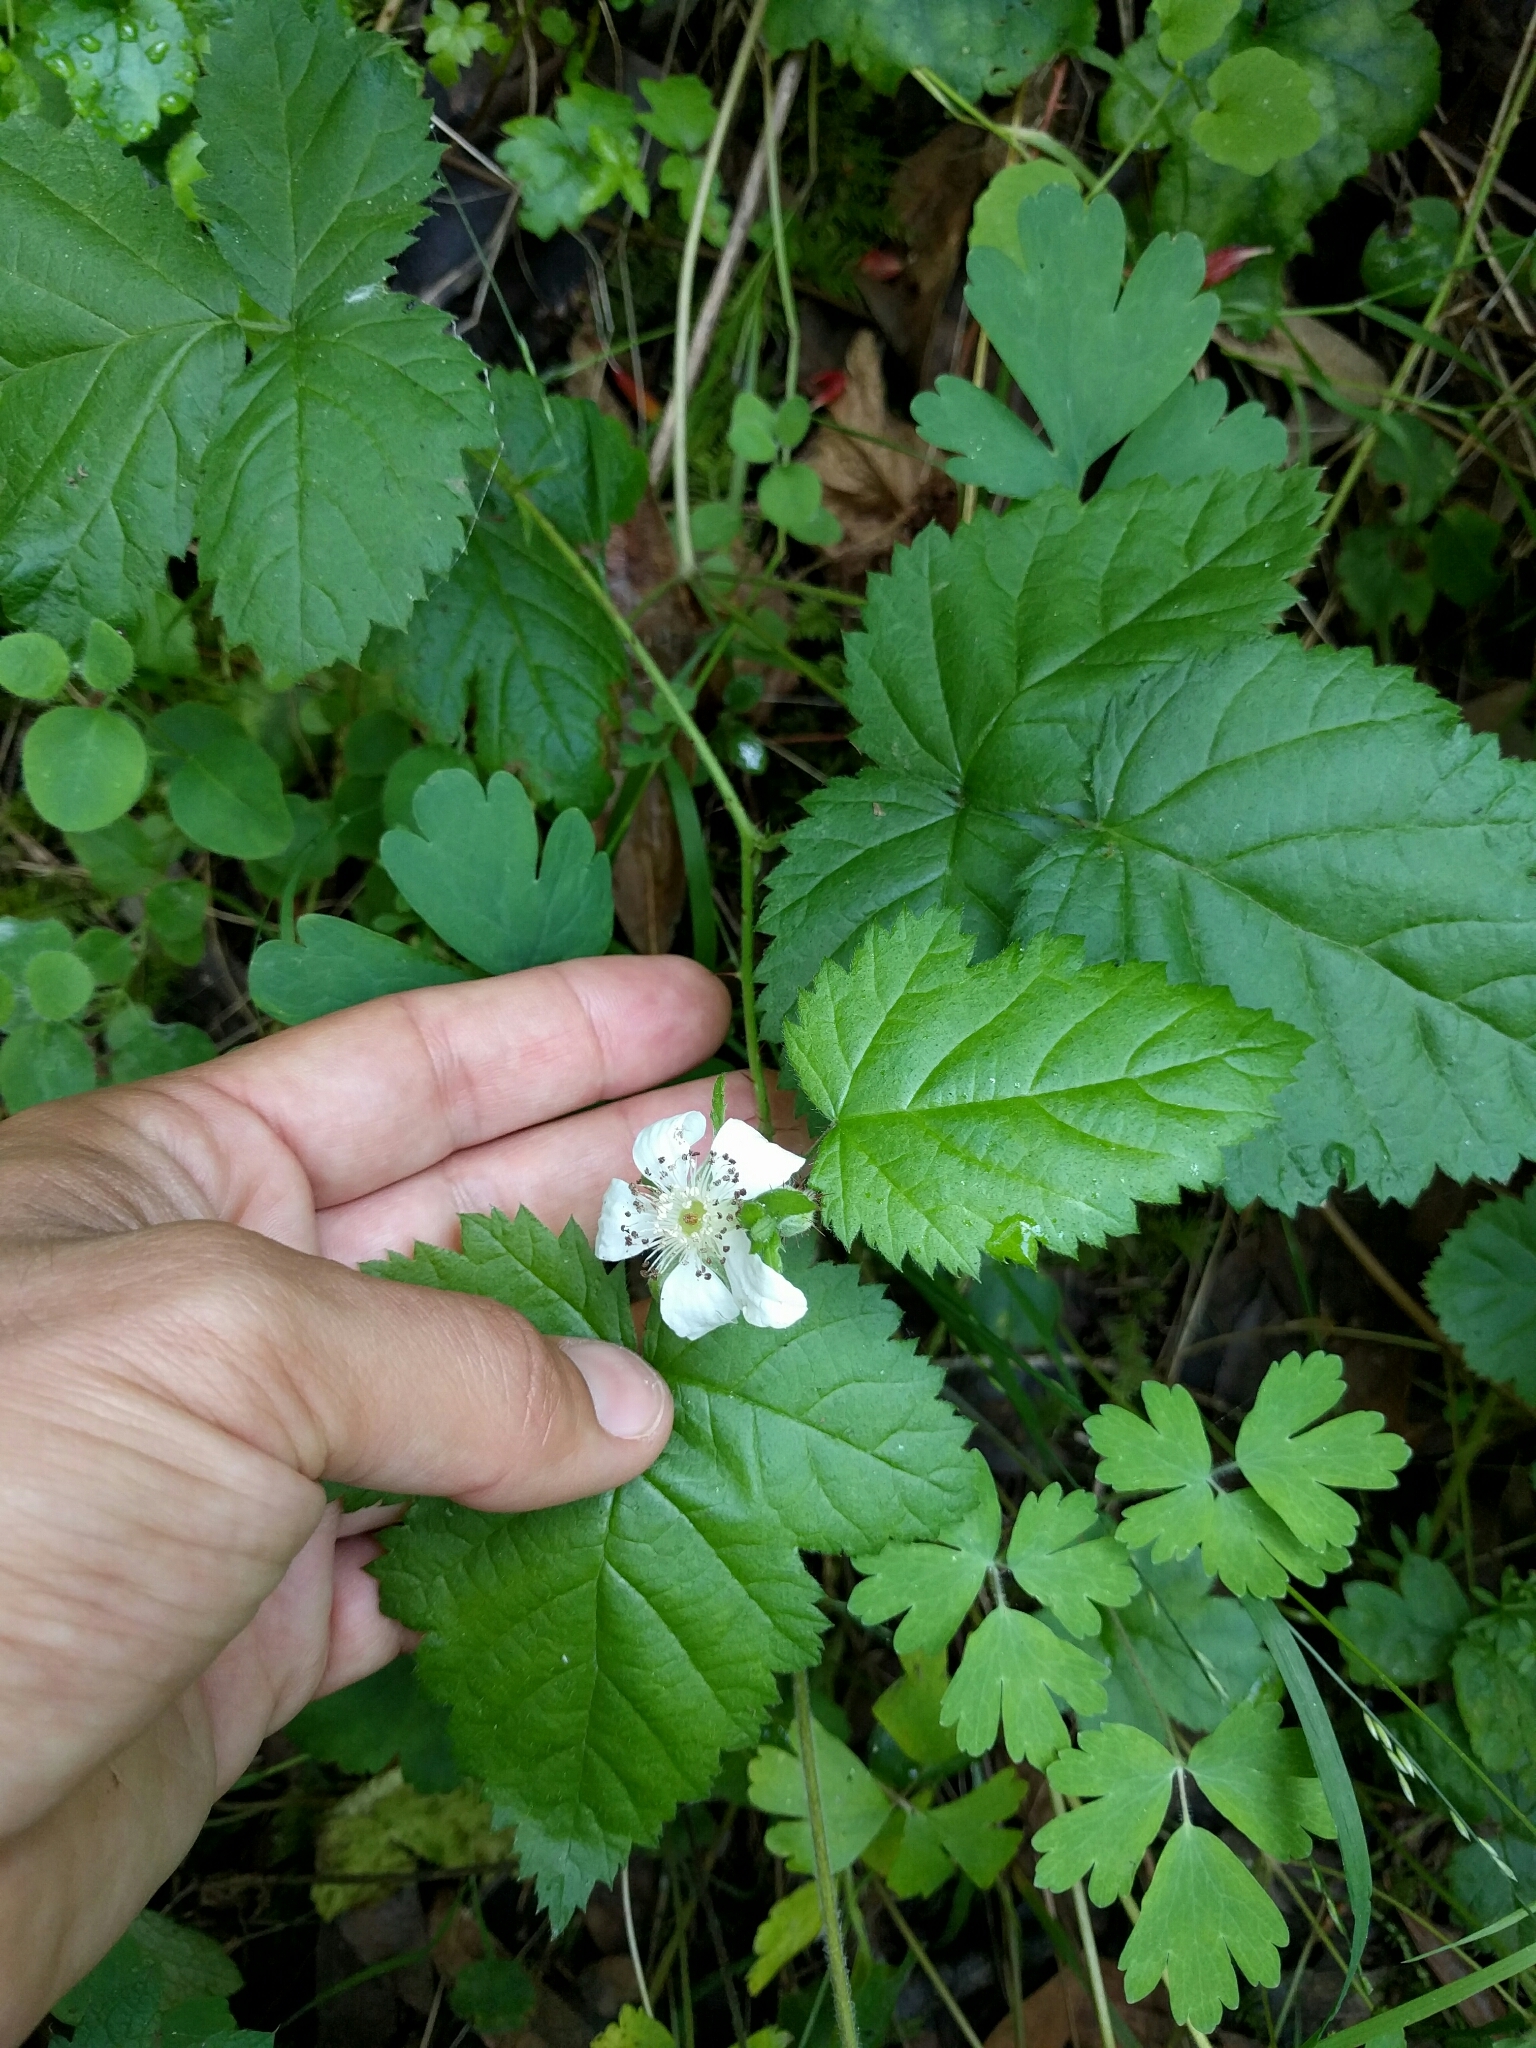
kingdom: Plantae
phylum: Tracheophyta
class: Magnoliopsida
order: Rosales
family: Rosaceae
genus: Rubus
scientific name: Rubus ursinus
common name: Pacific blackberry
